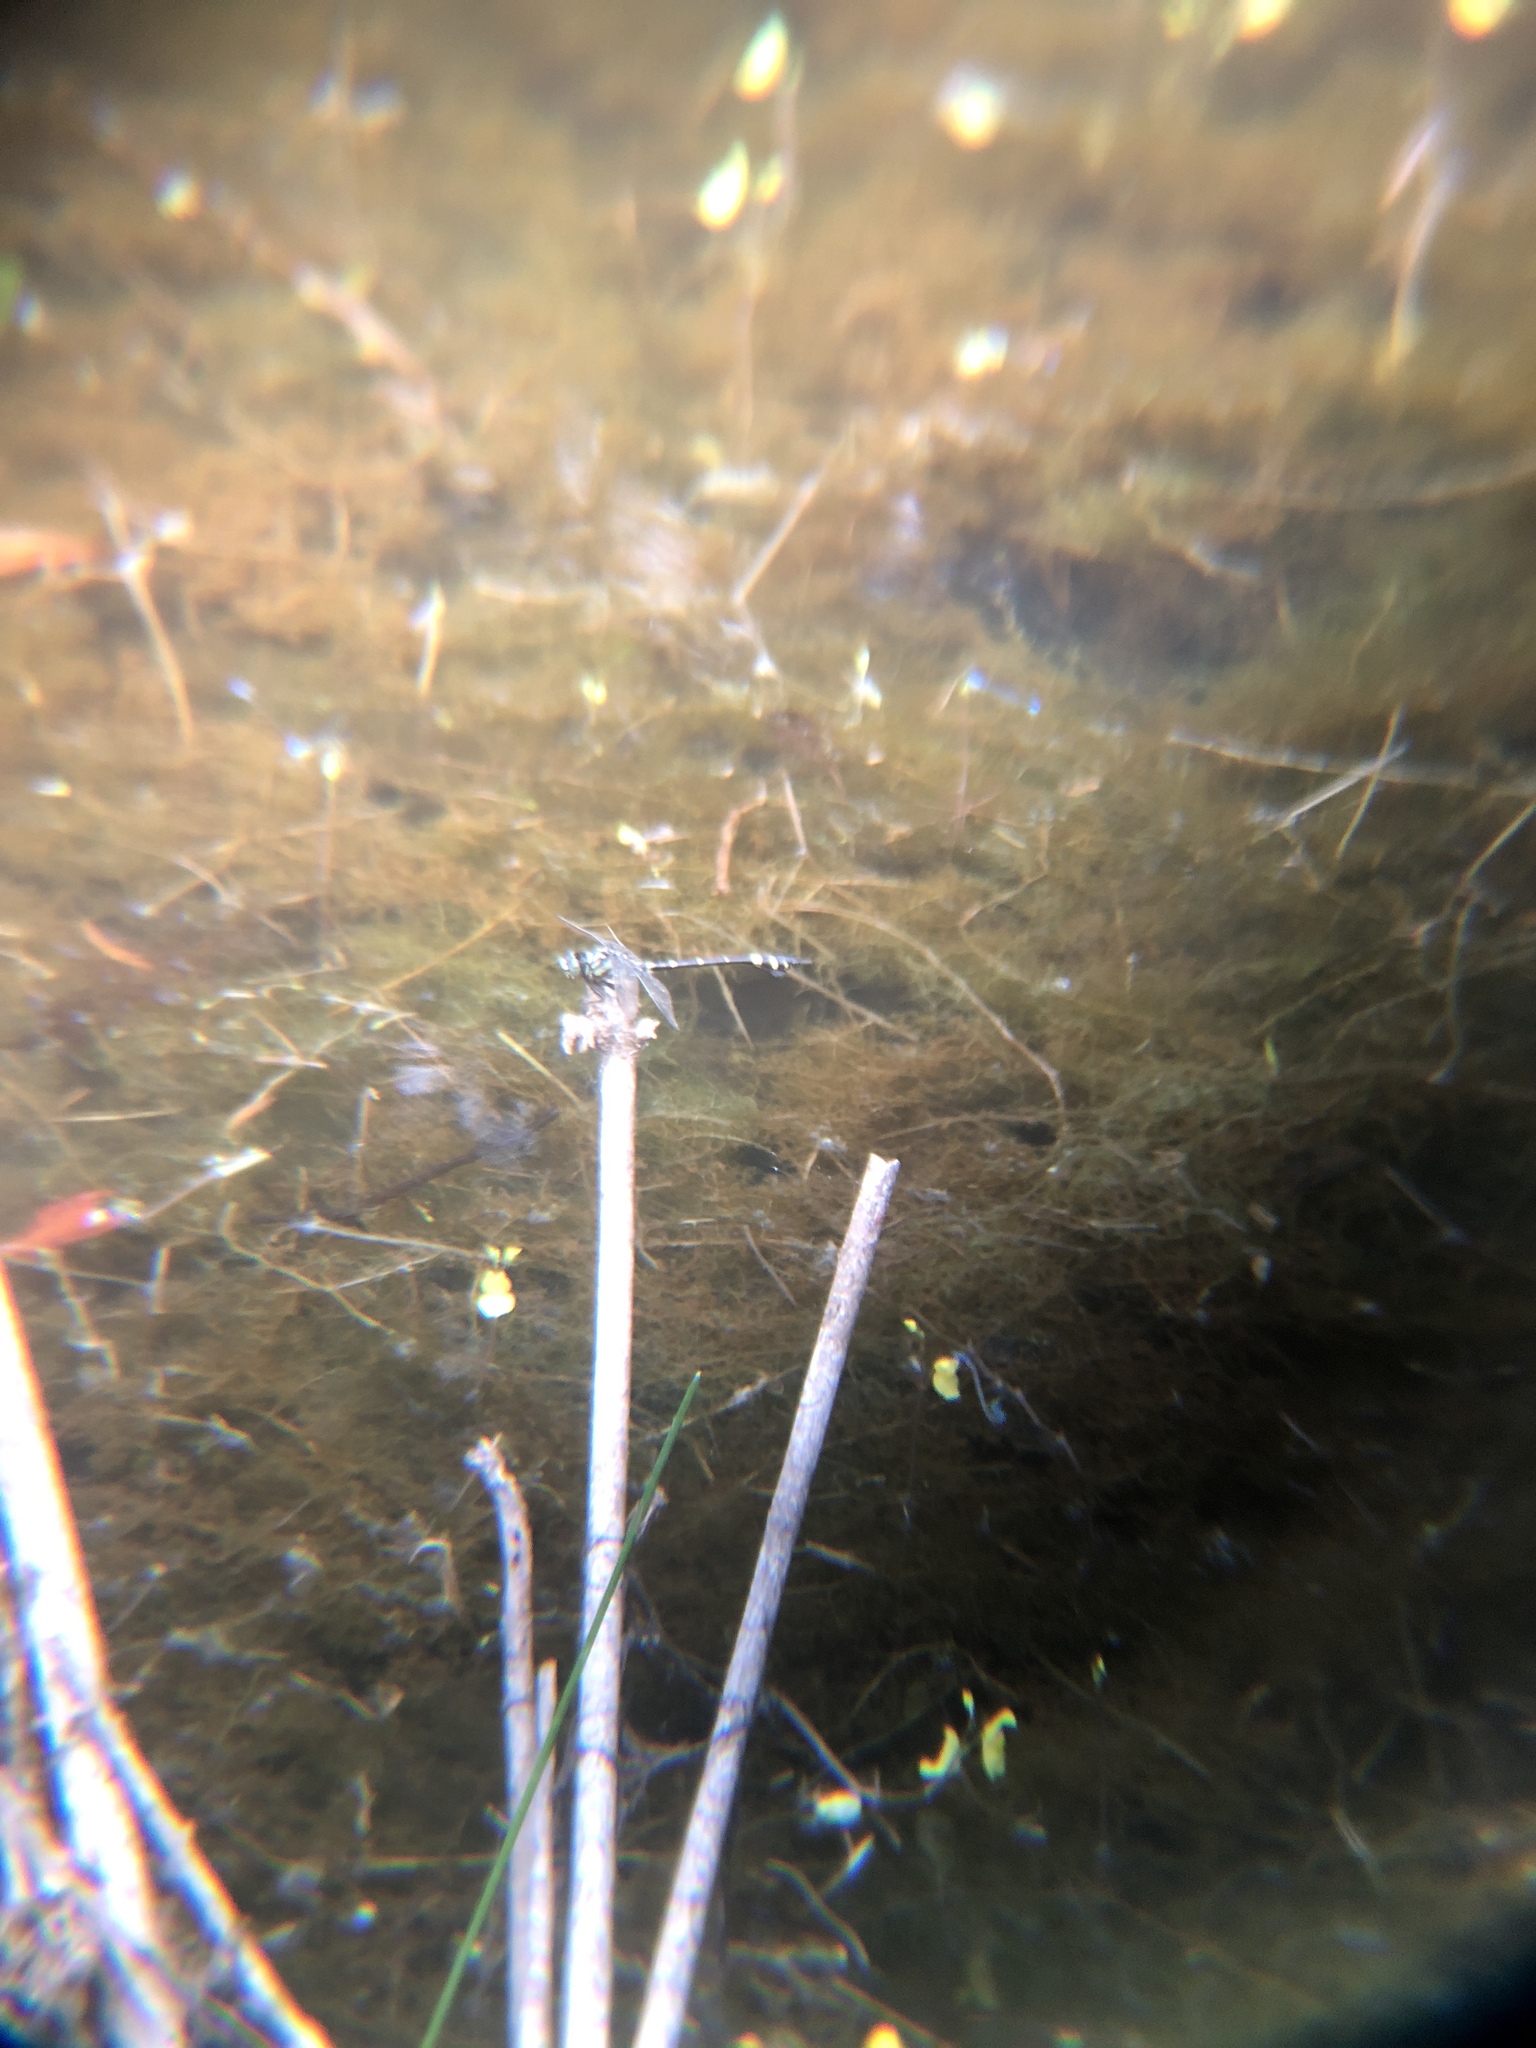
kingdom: Animalia
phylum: Arthropoda
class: Insecta
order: Odonata
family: Gomphidae
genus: Ictinogomphus
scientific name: Ictinogomphus rapax
